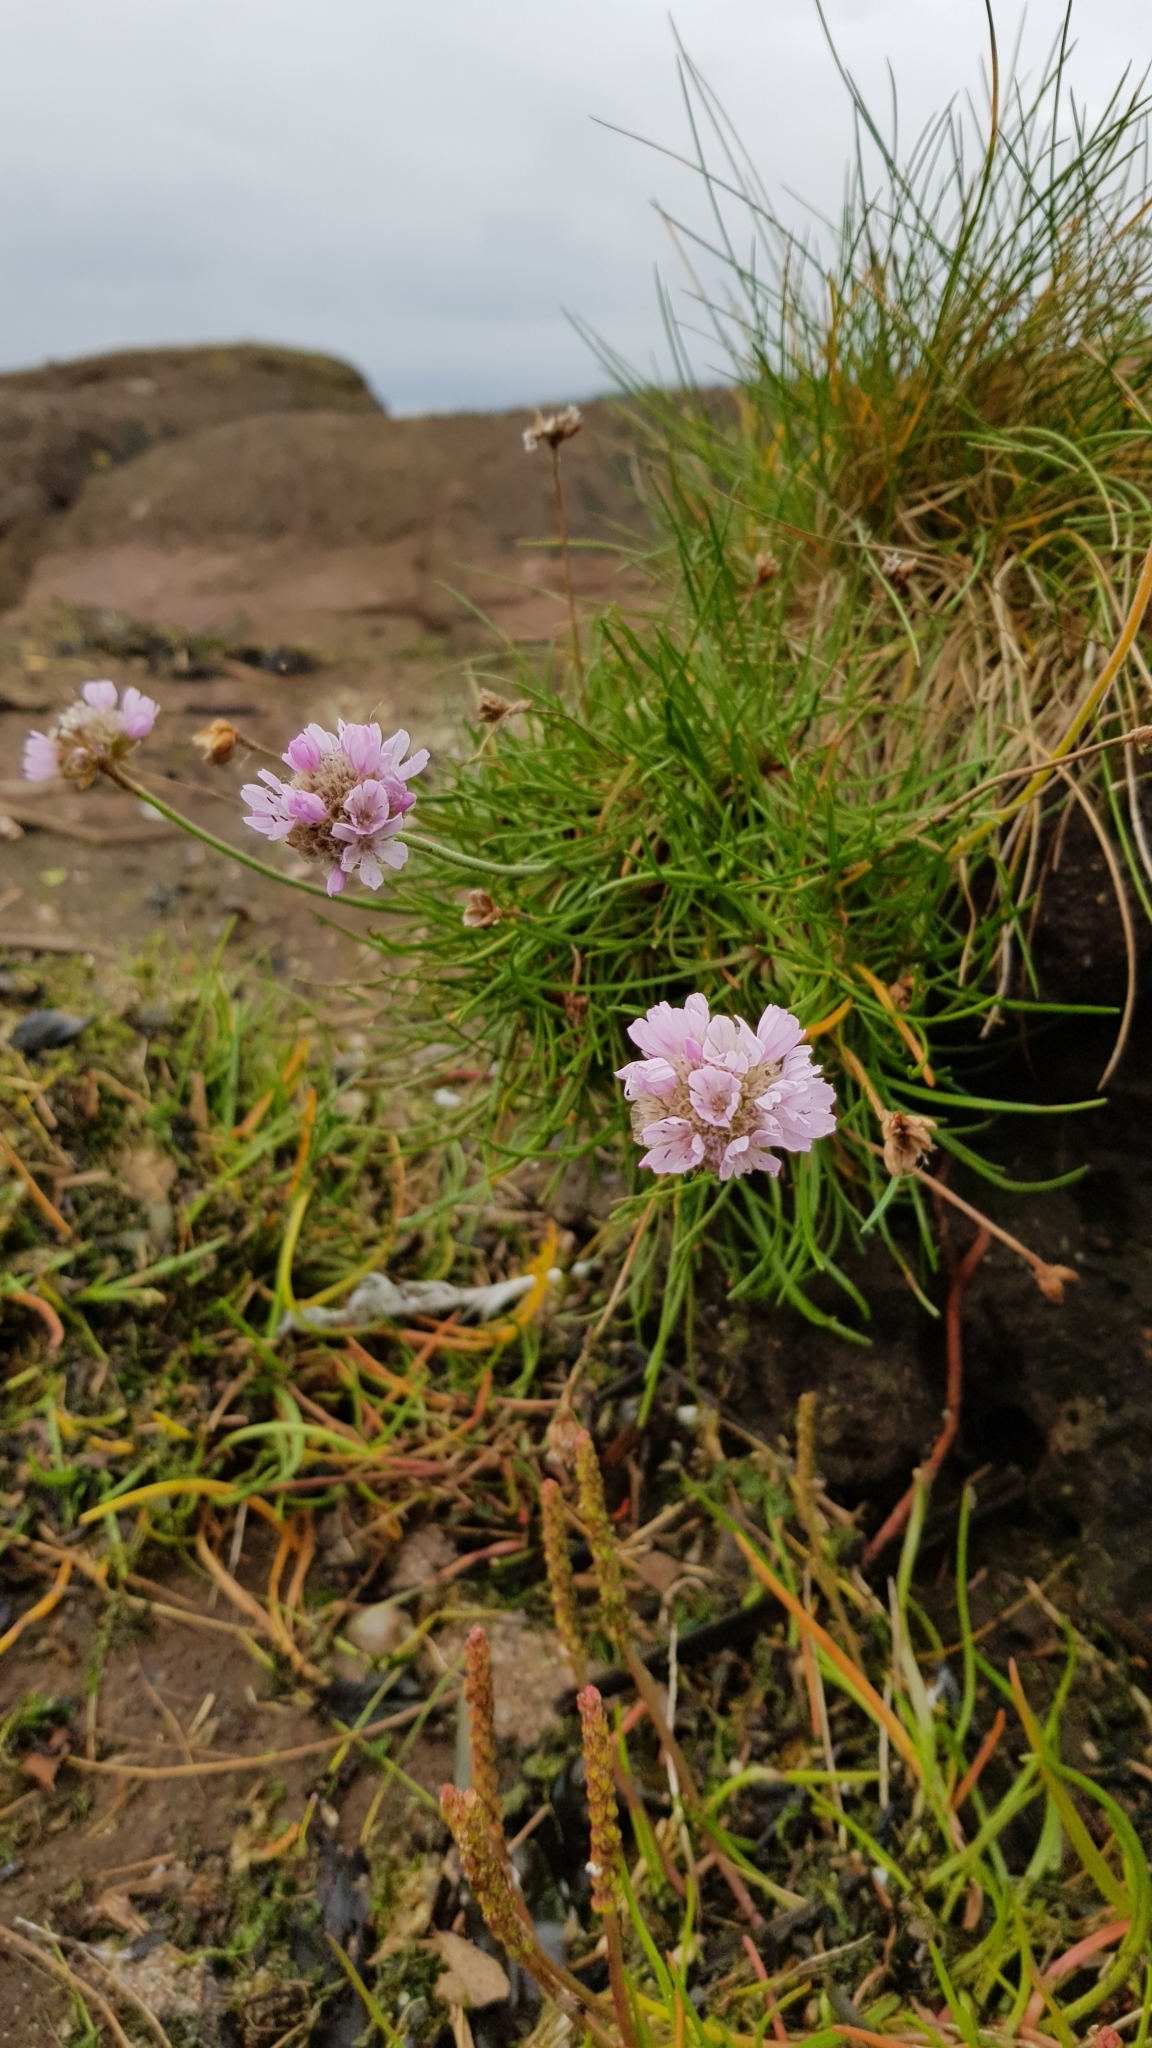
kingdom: Plantae
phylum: Tracheophyta
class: Magnoliopsida
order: Caryophyllales
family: Plumbaginaceae
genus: Armeria
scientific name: Armeria maritima
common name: Thrift
